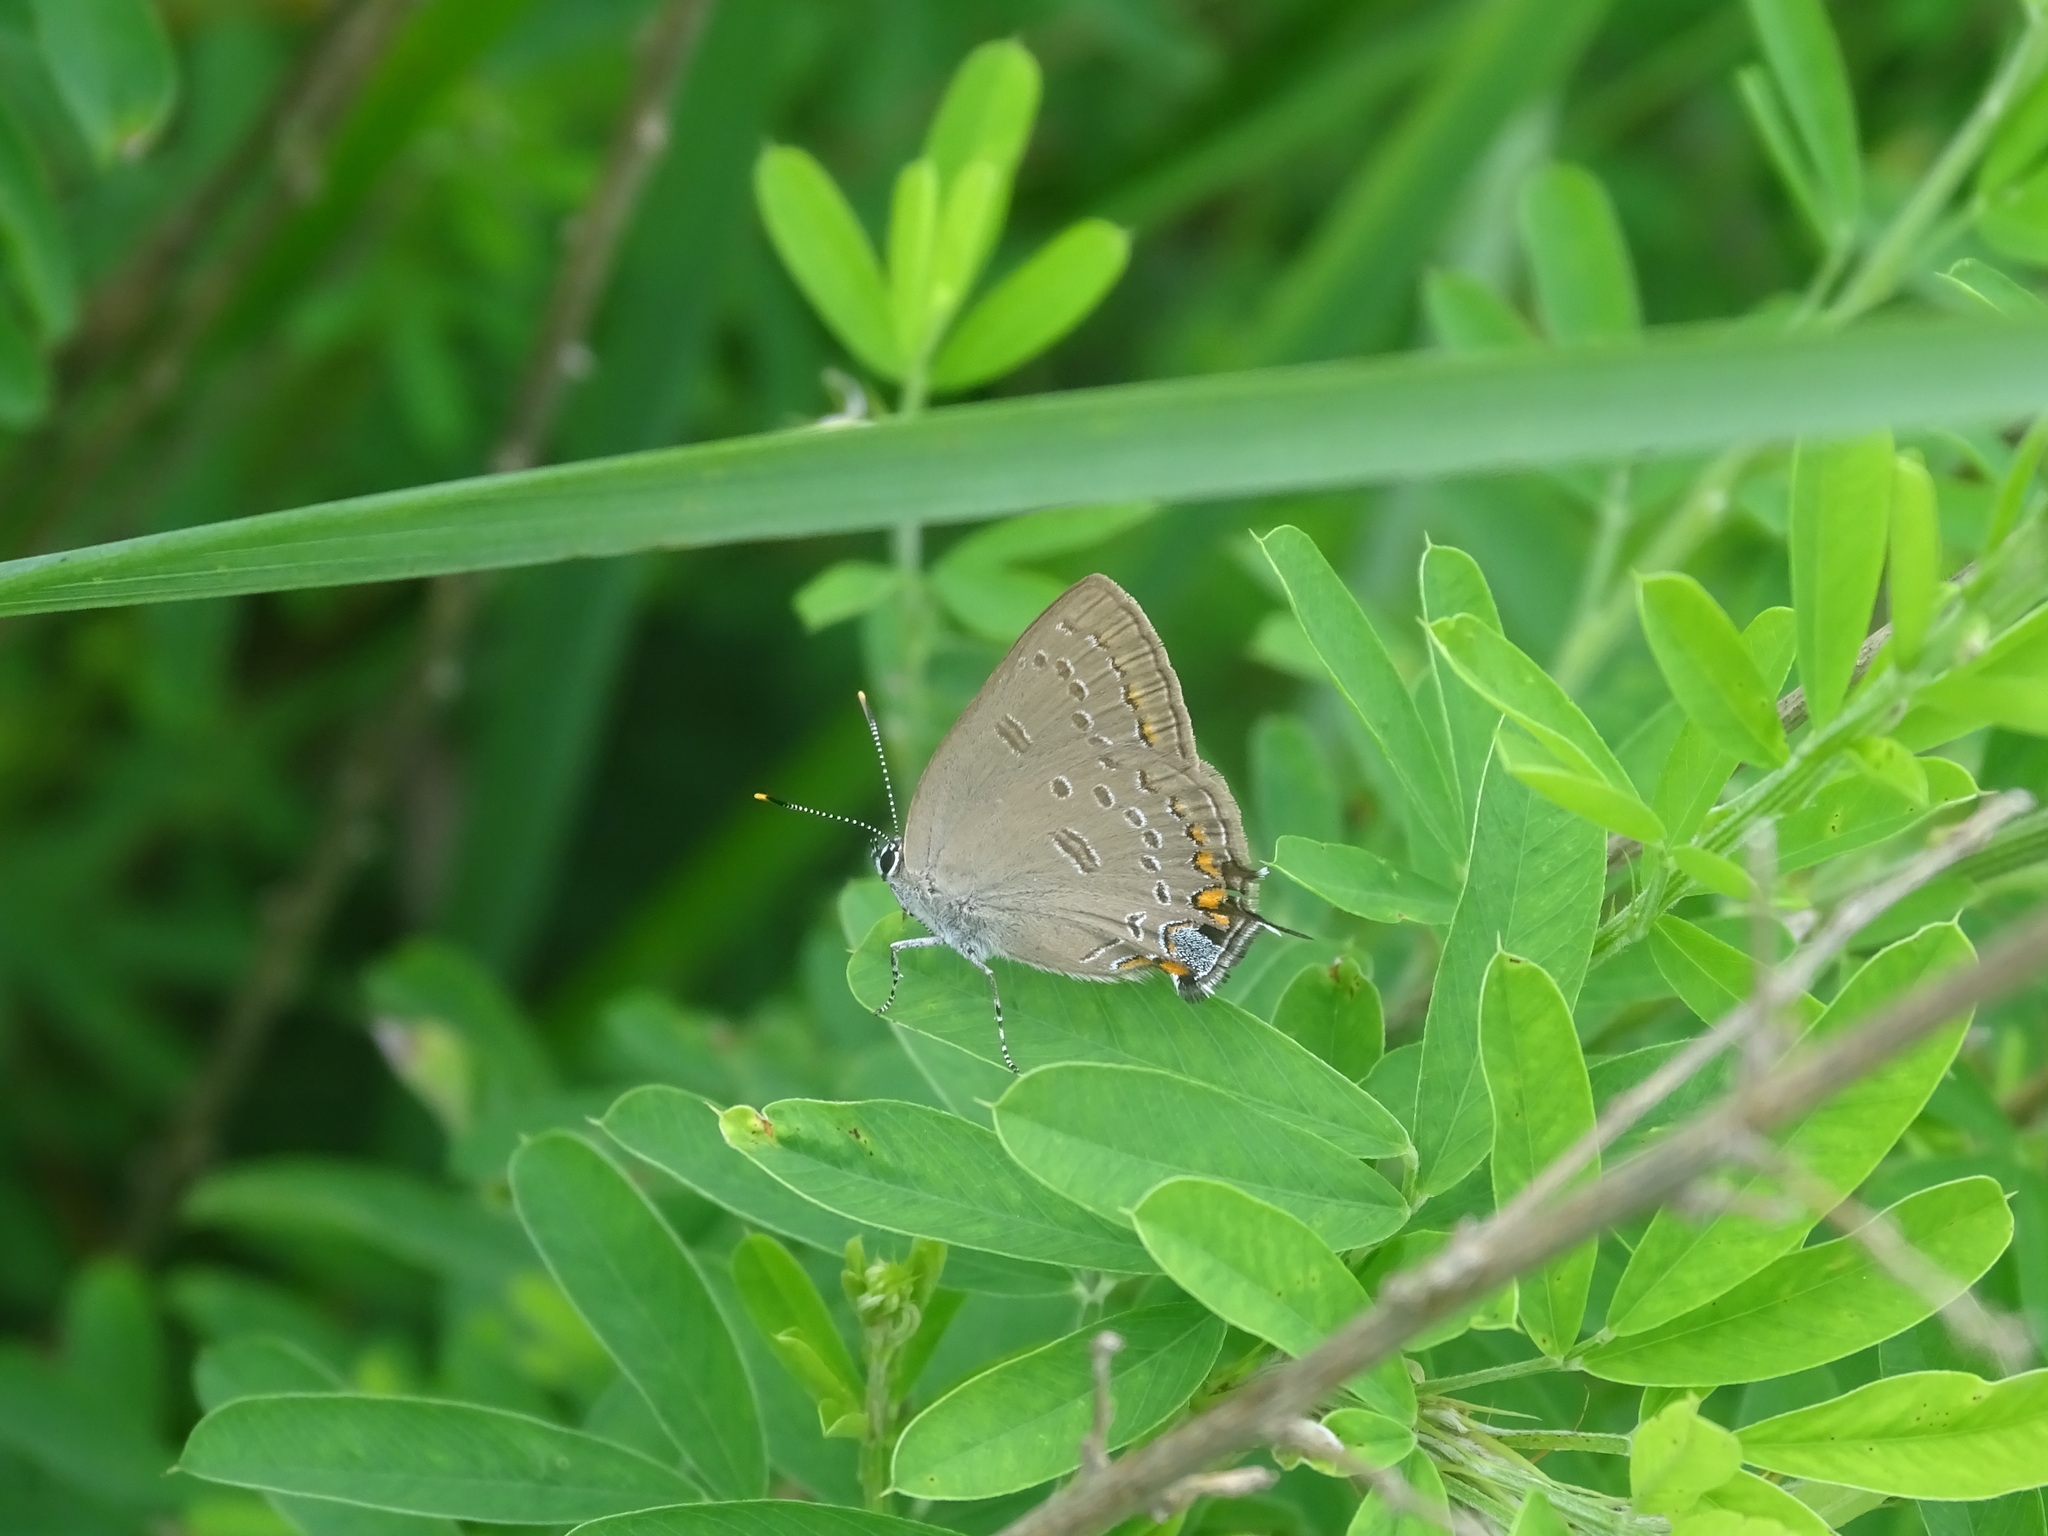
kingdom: Animalia
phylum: Arthropoda
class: Insecta
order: Lepidoptera
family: Lycaenidae
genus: Satyrium
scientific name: Satyrium edwardsii
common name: Edwards' hairstreak
